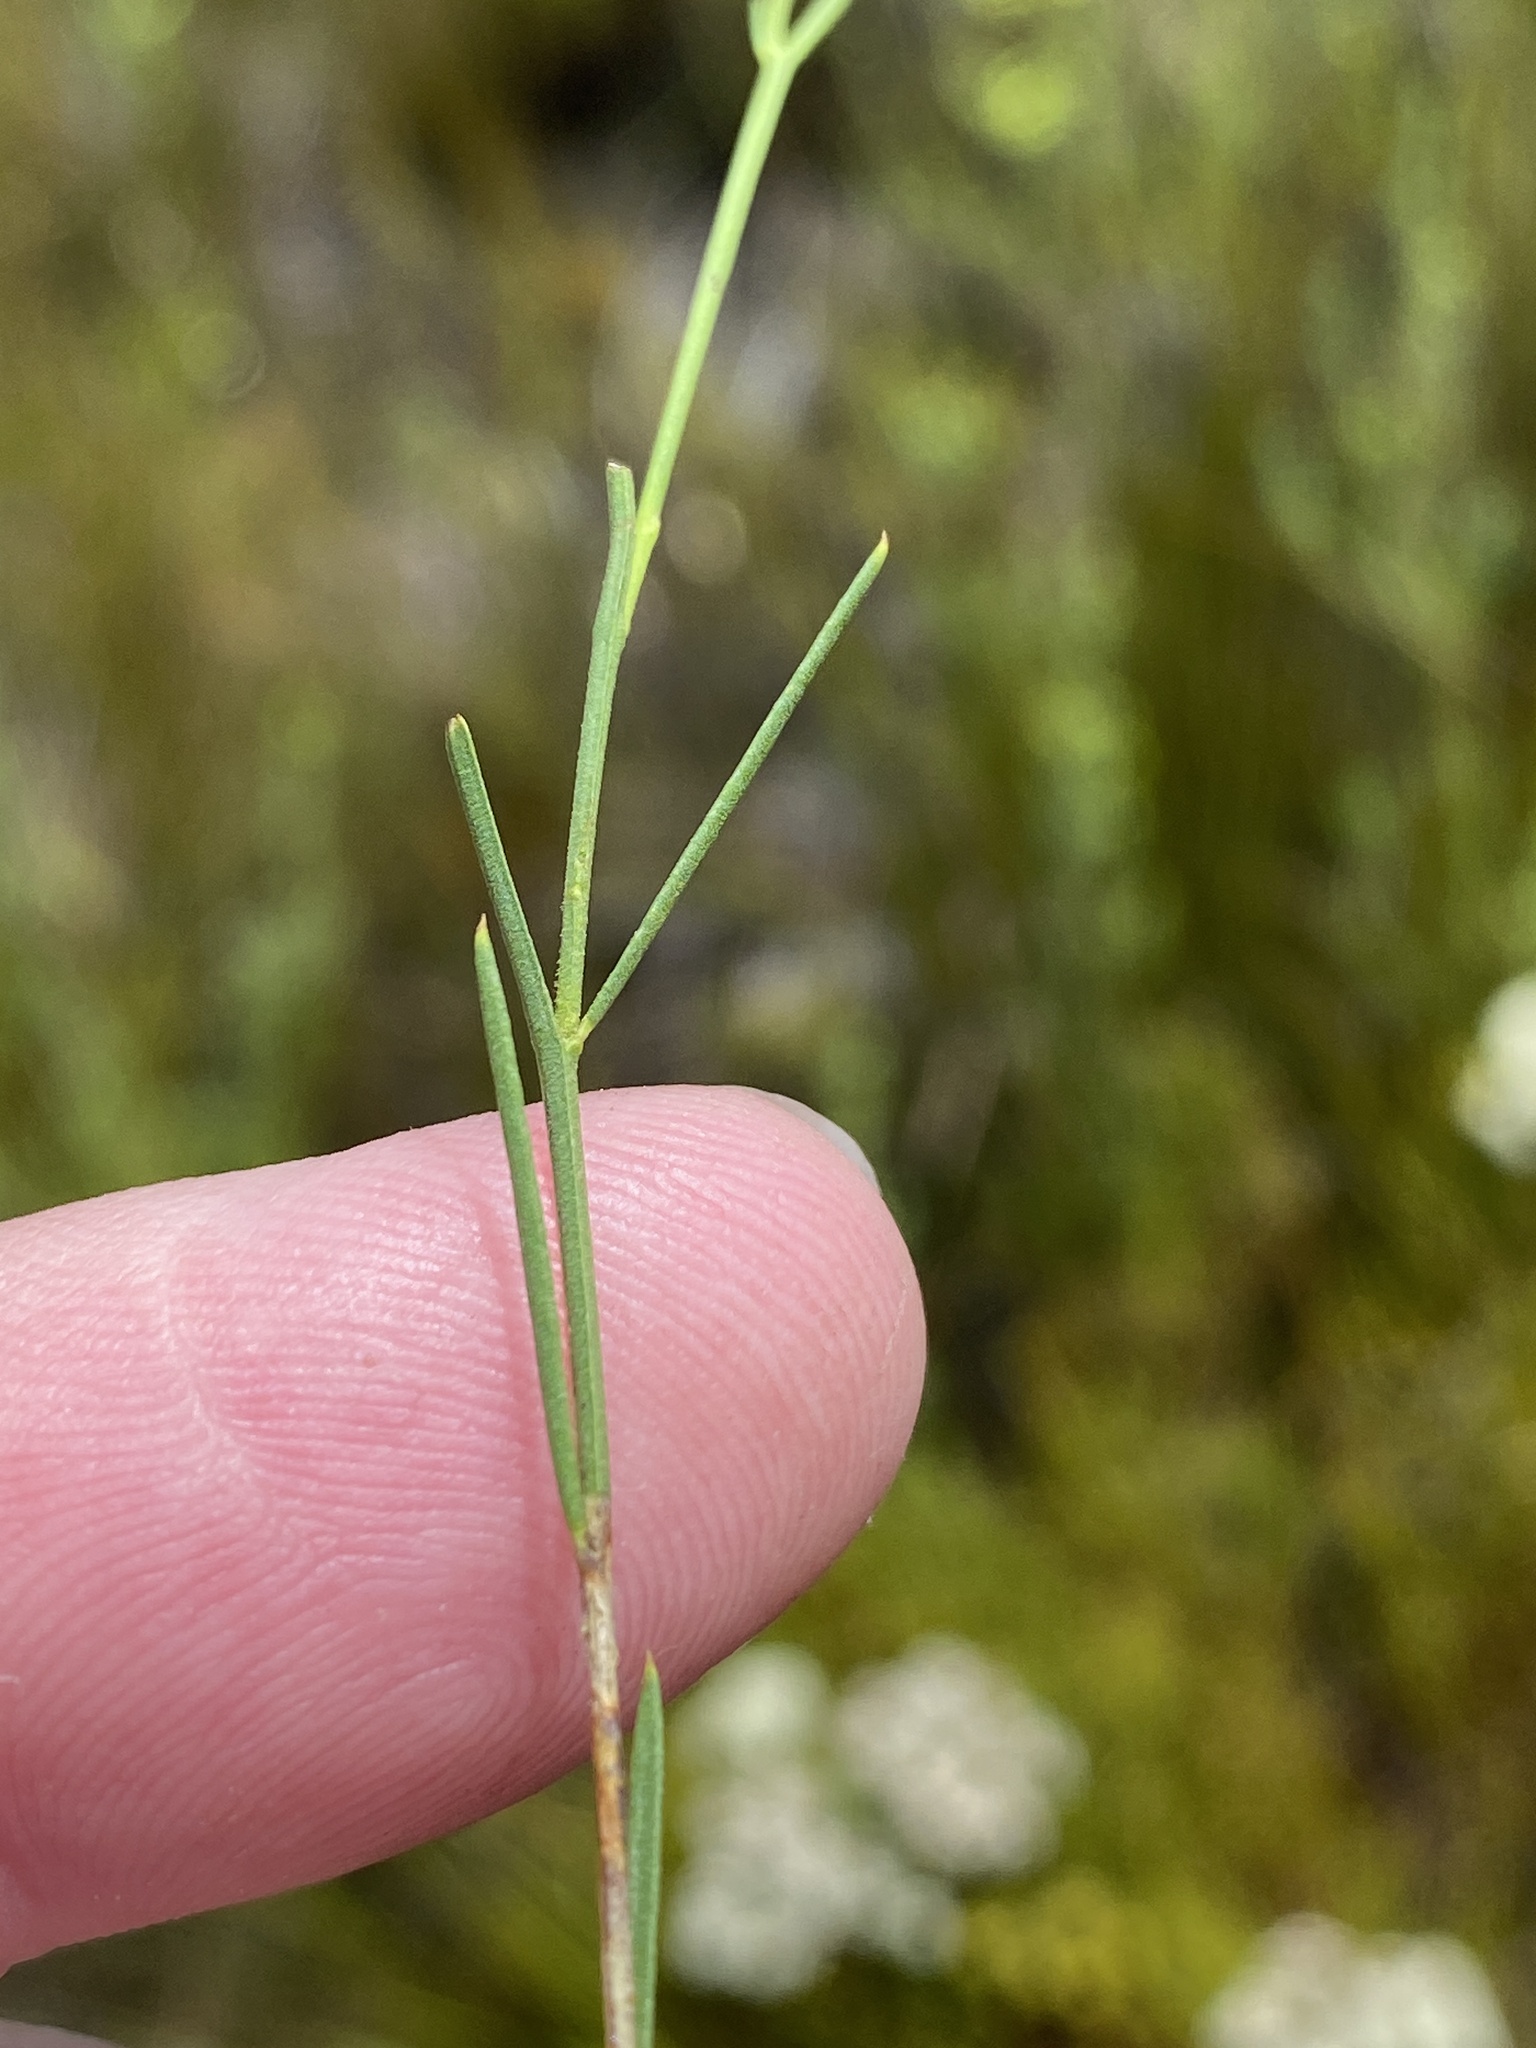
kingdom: Plantae
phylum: Tracheophyta
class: Magnoliopsida
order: Fabales
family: Polygalaceae
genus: Polygala
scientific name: Polygala refracta
